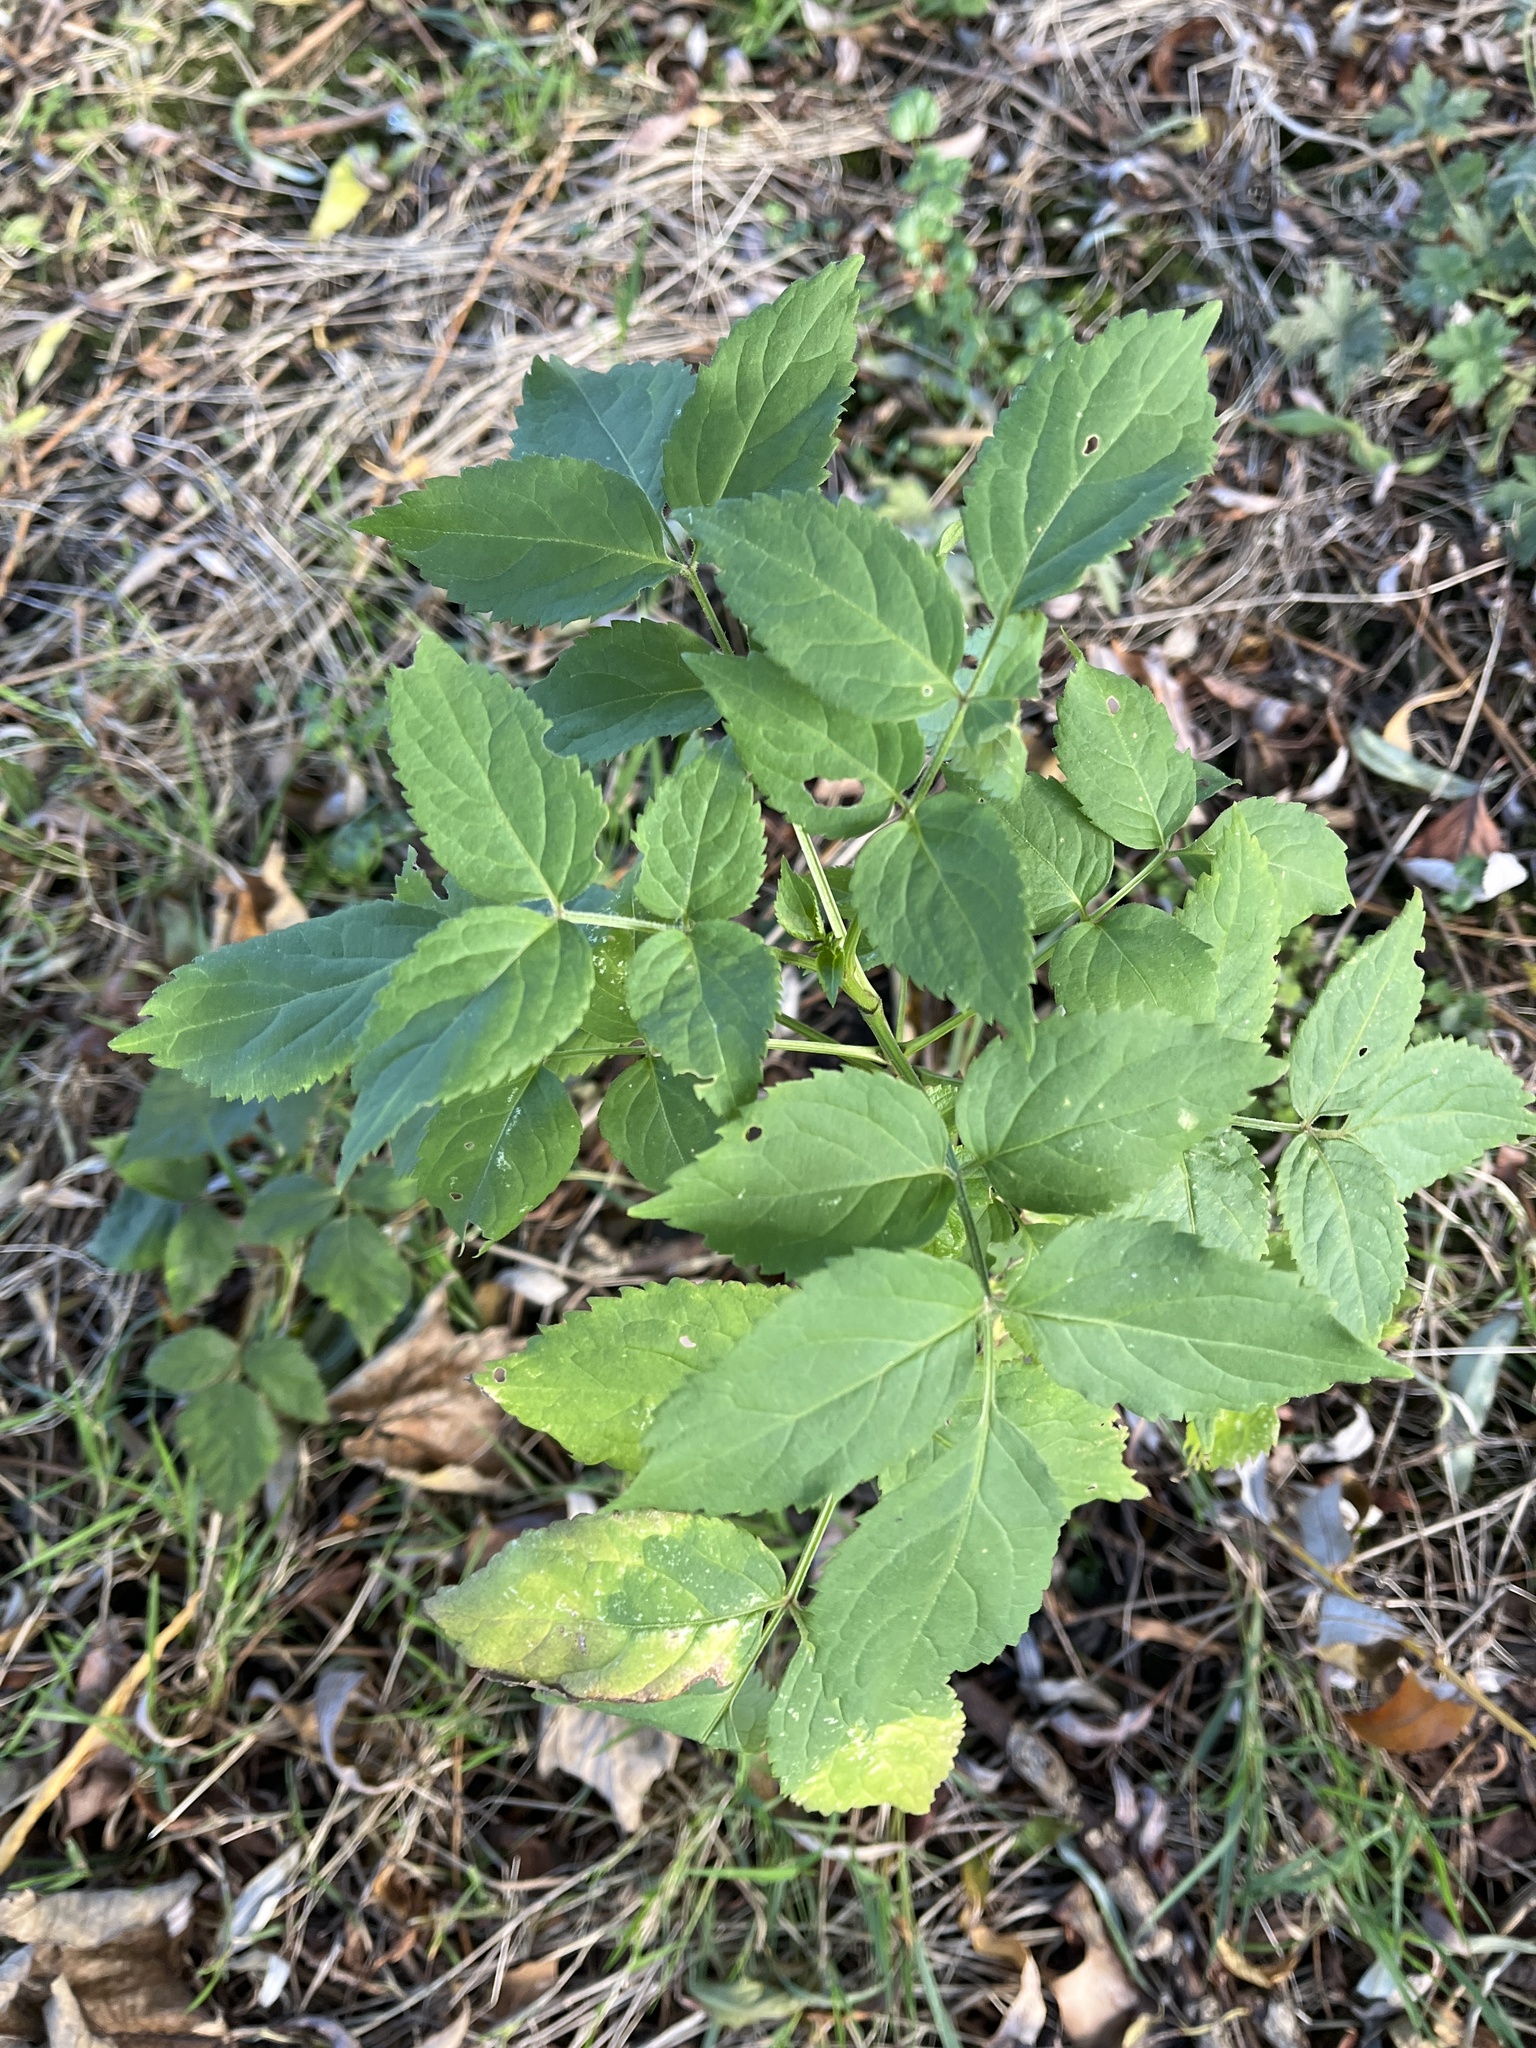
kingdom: Plantae
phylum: Tracheophyta
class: Magnoliopsida
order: Dipsacales
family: Viburnaceae
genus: Sambucus
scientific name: Sambucus nigra
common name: Elder
